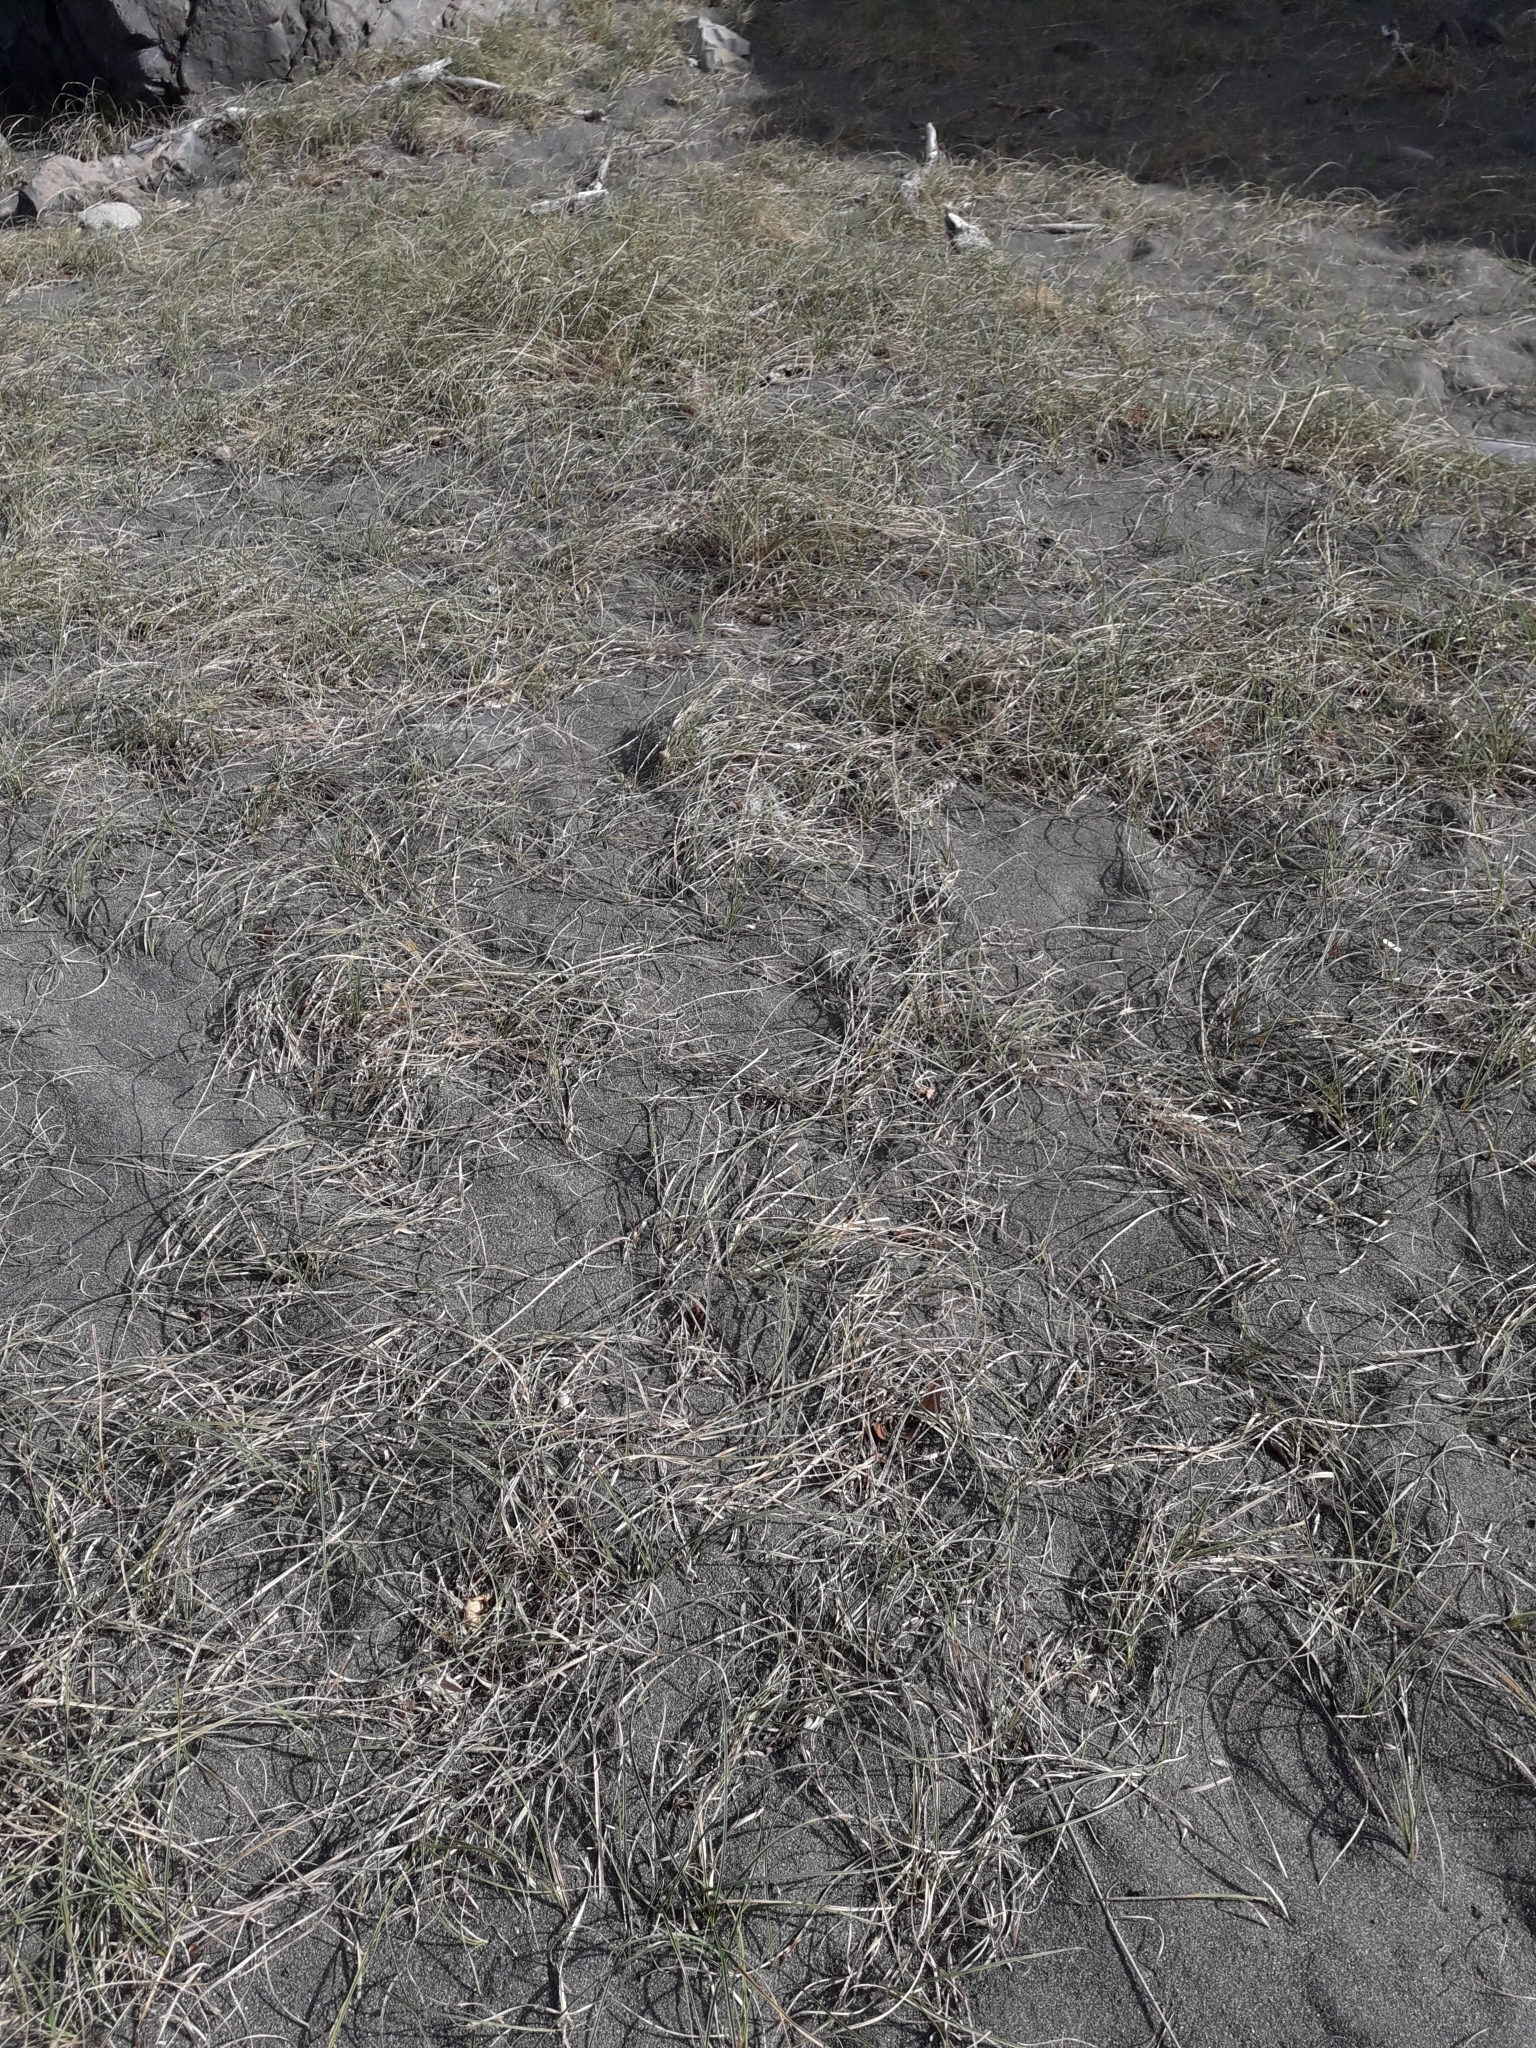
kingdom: Plantae
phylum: Tracheophyta
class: Liliopsida
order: Poales
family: Cyperaceae
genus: Carex
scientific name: Carex pumila
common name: Dwarf sedge
